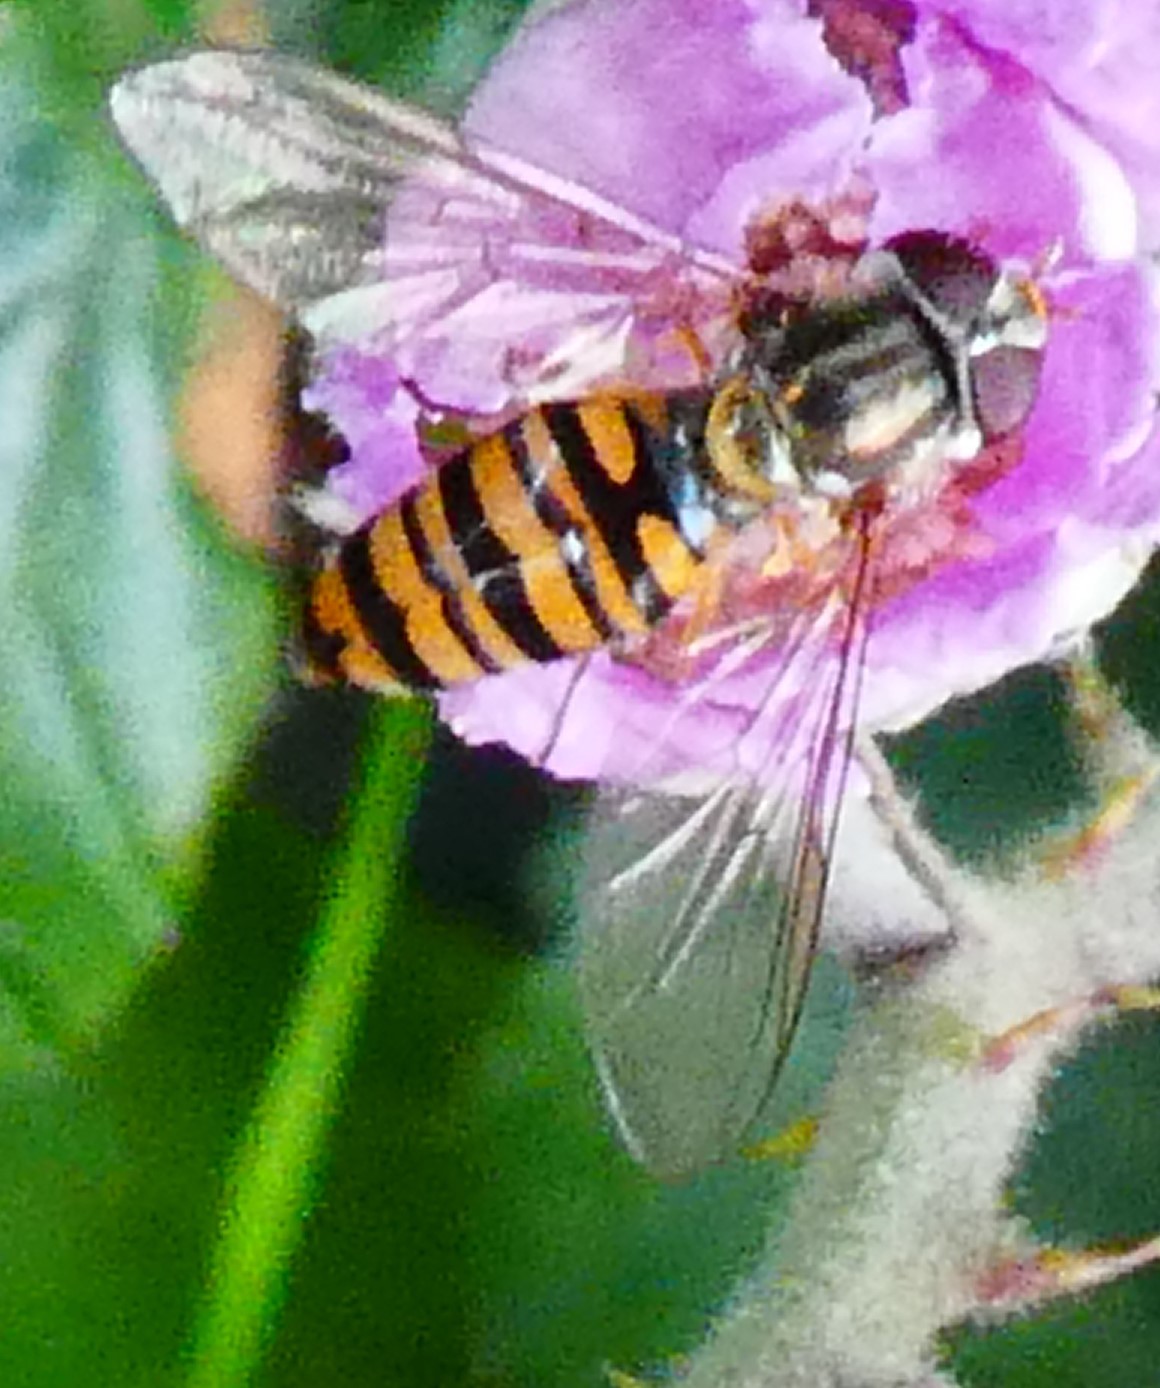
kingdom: Animalia
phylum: Arthropoda
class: Insecta
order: Diptera
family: Syrphidae
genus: Episyrphus
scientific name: Episyrphus balteatus
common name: Marmalade hoverfly
